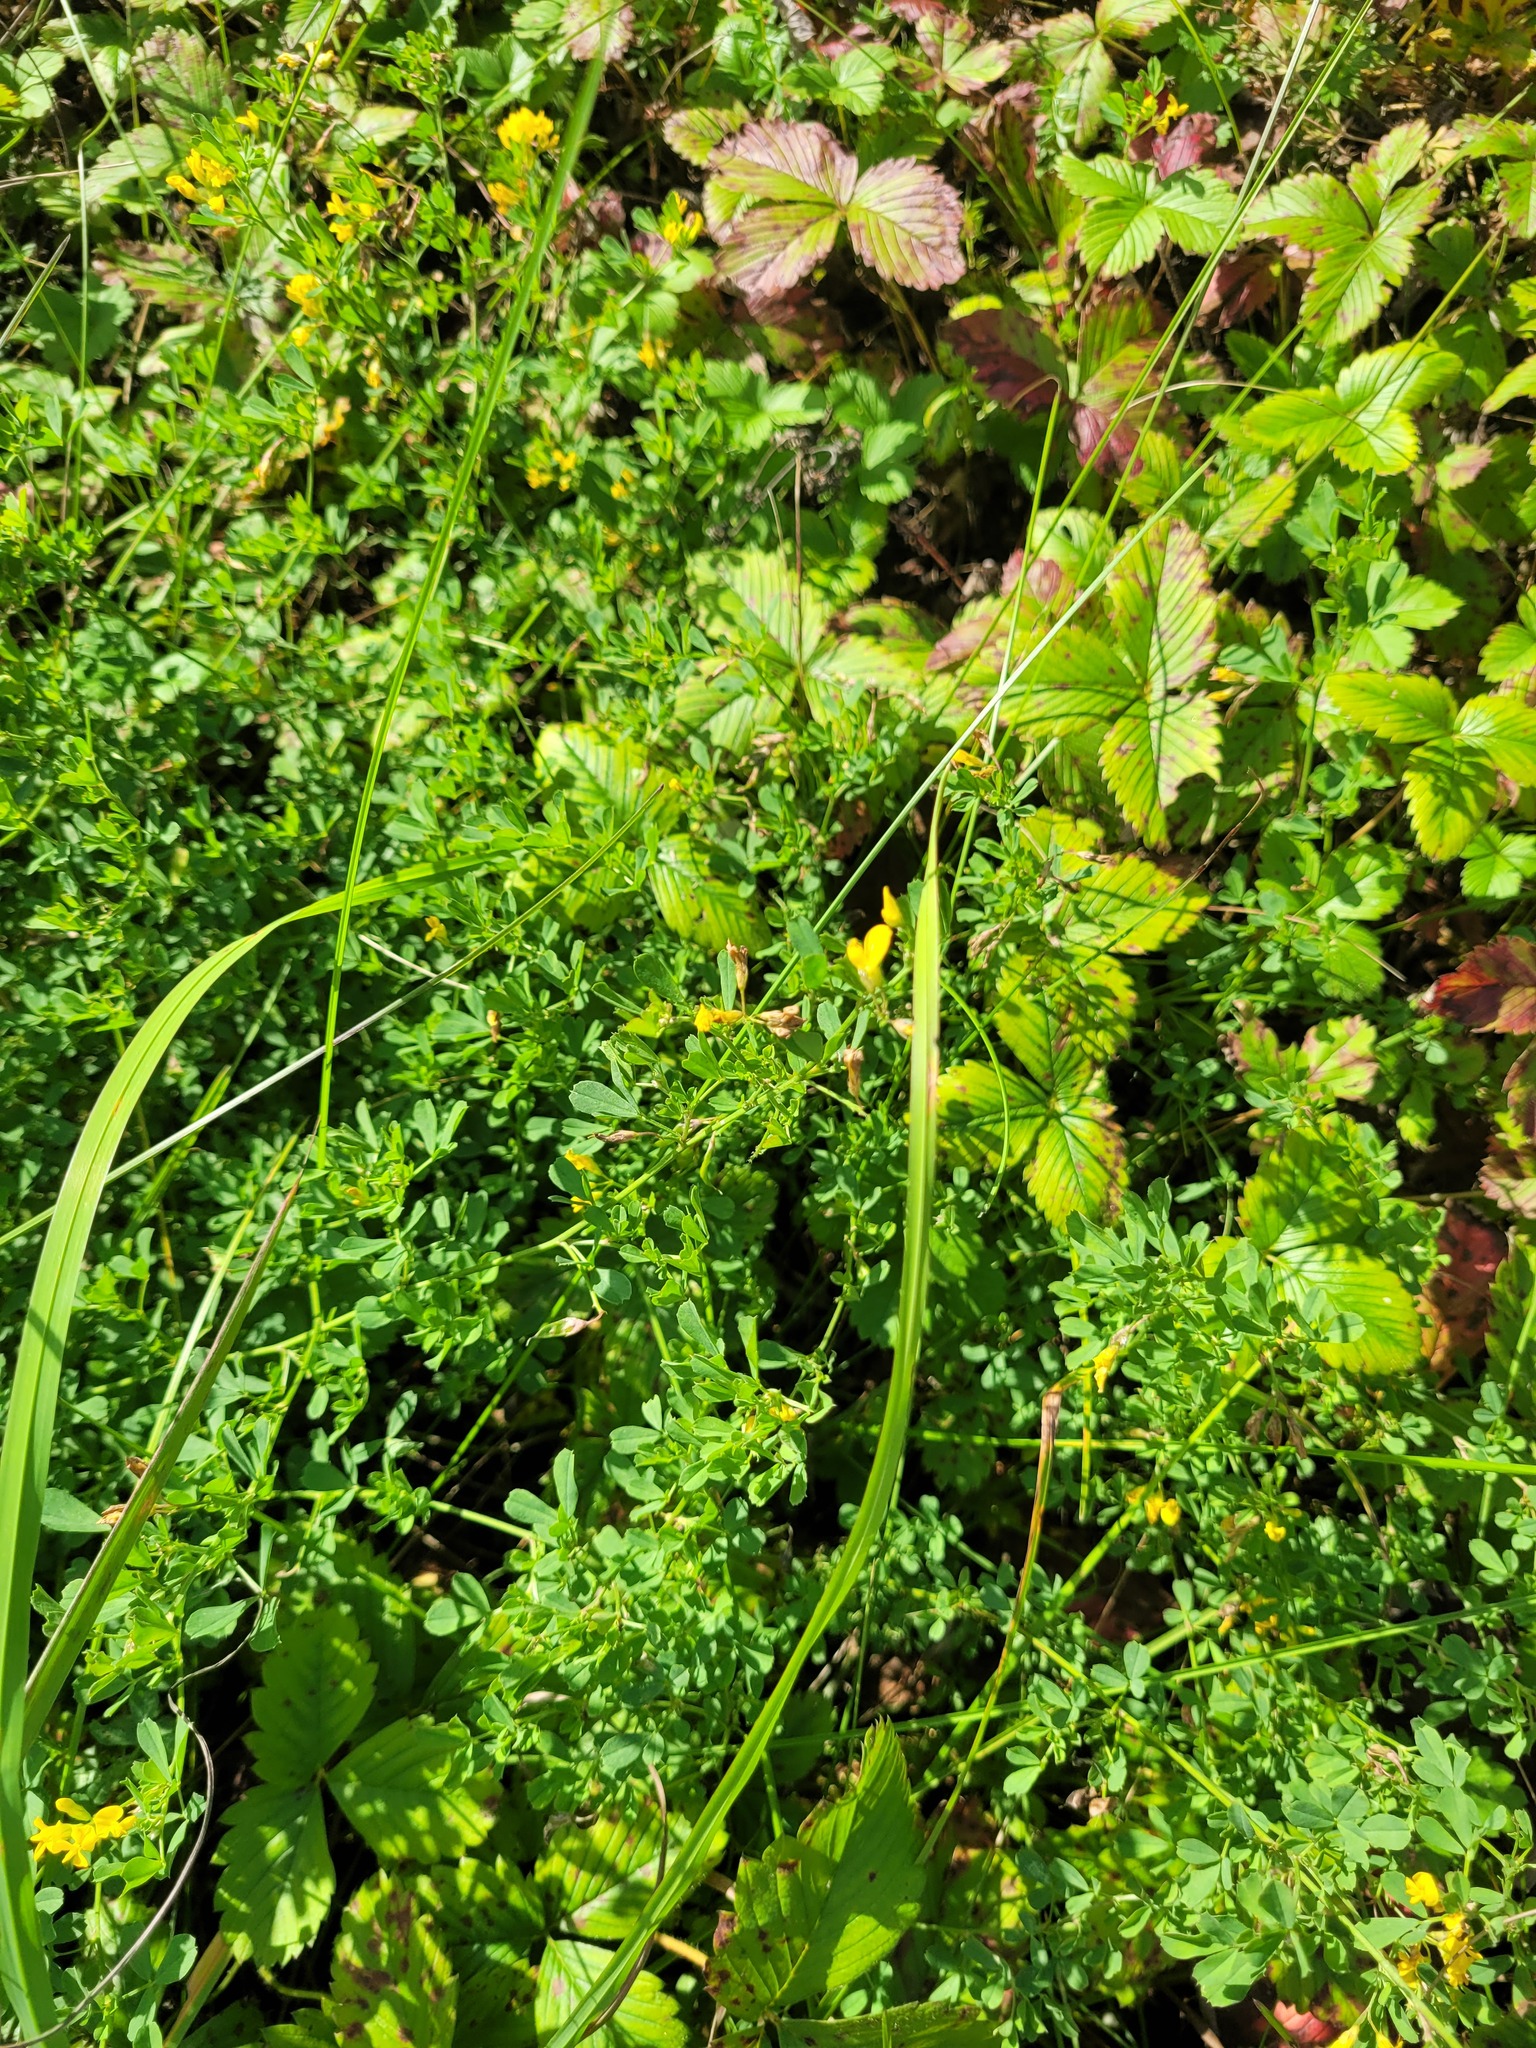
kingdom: Plantae
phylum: Tracheophyta
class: Magnoliopsida
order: Fabales
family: Fabaceae
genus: Medicago
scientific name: Medicago falcata
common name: Sickle medick
